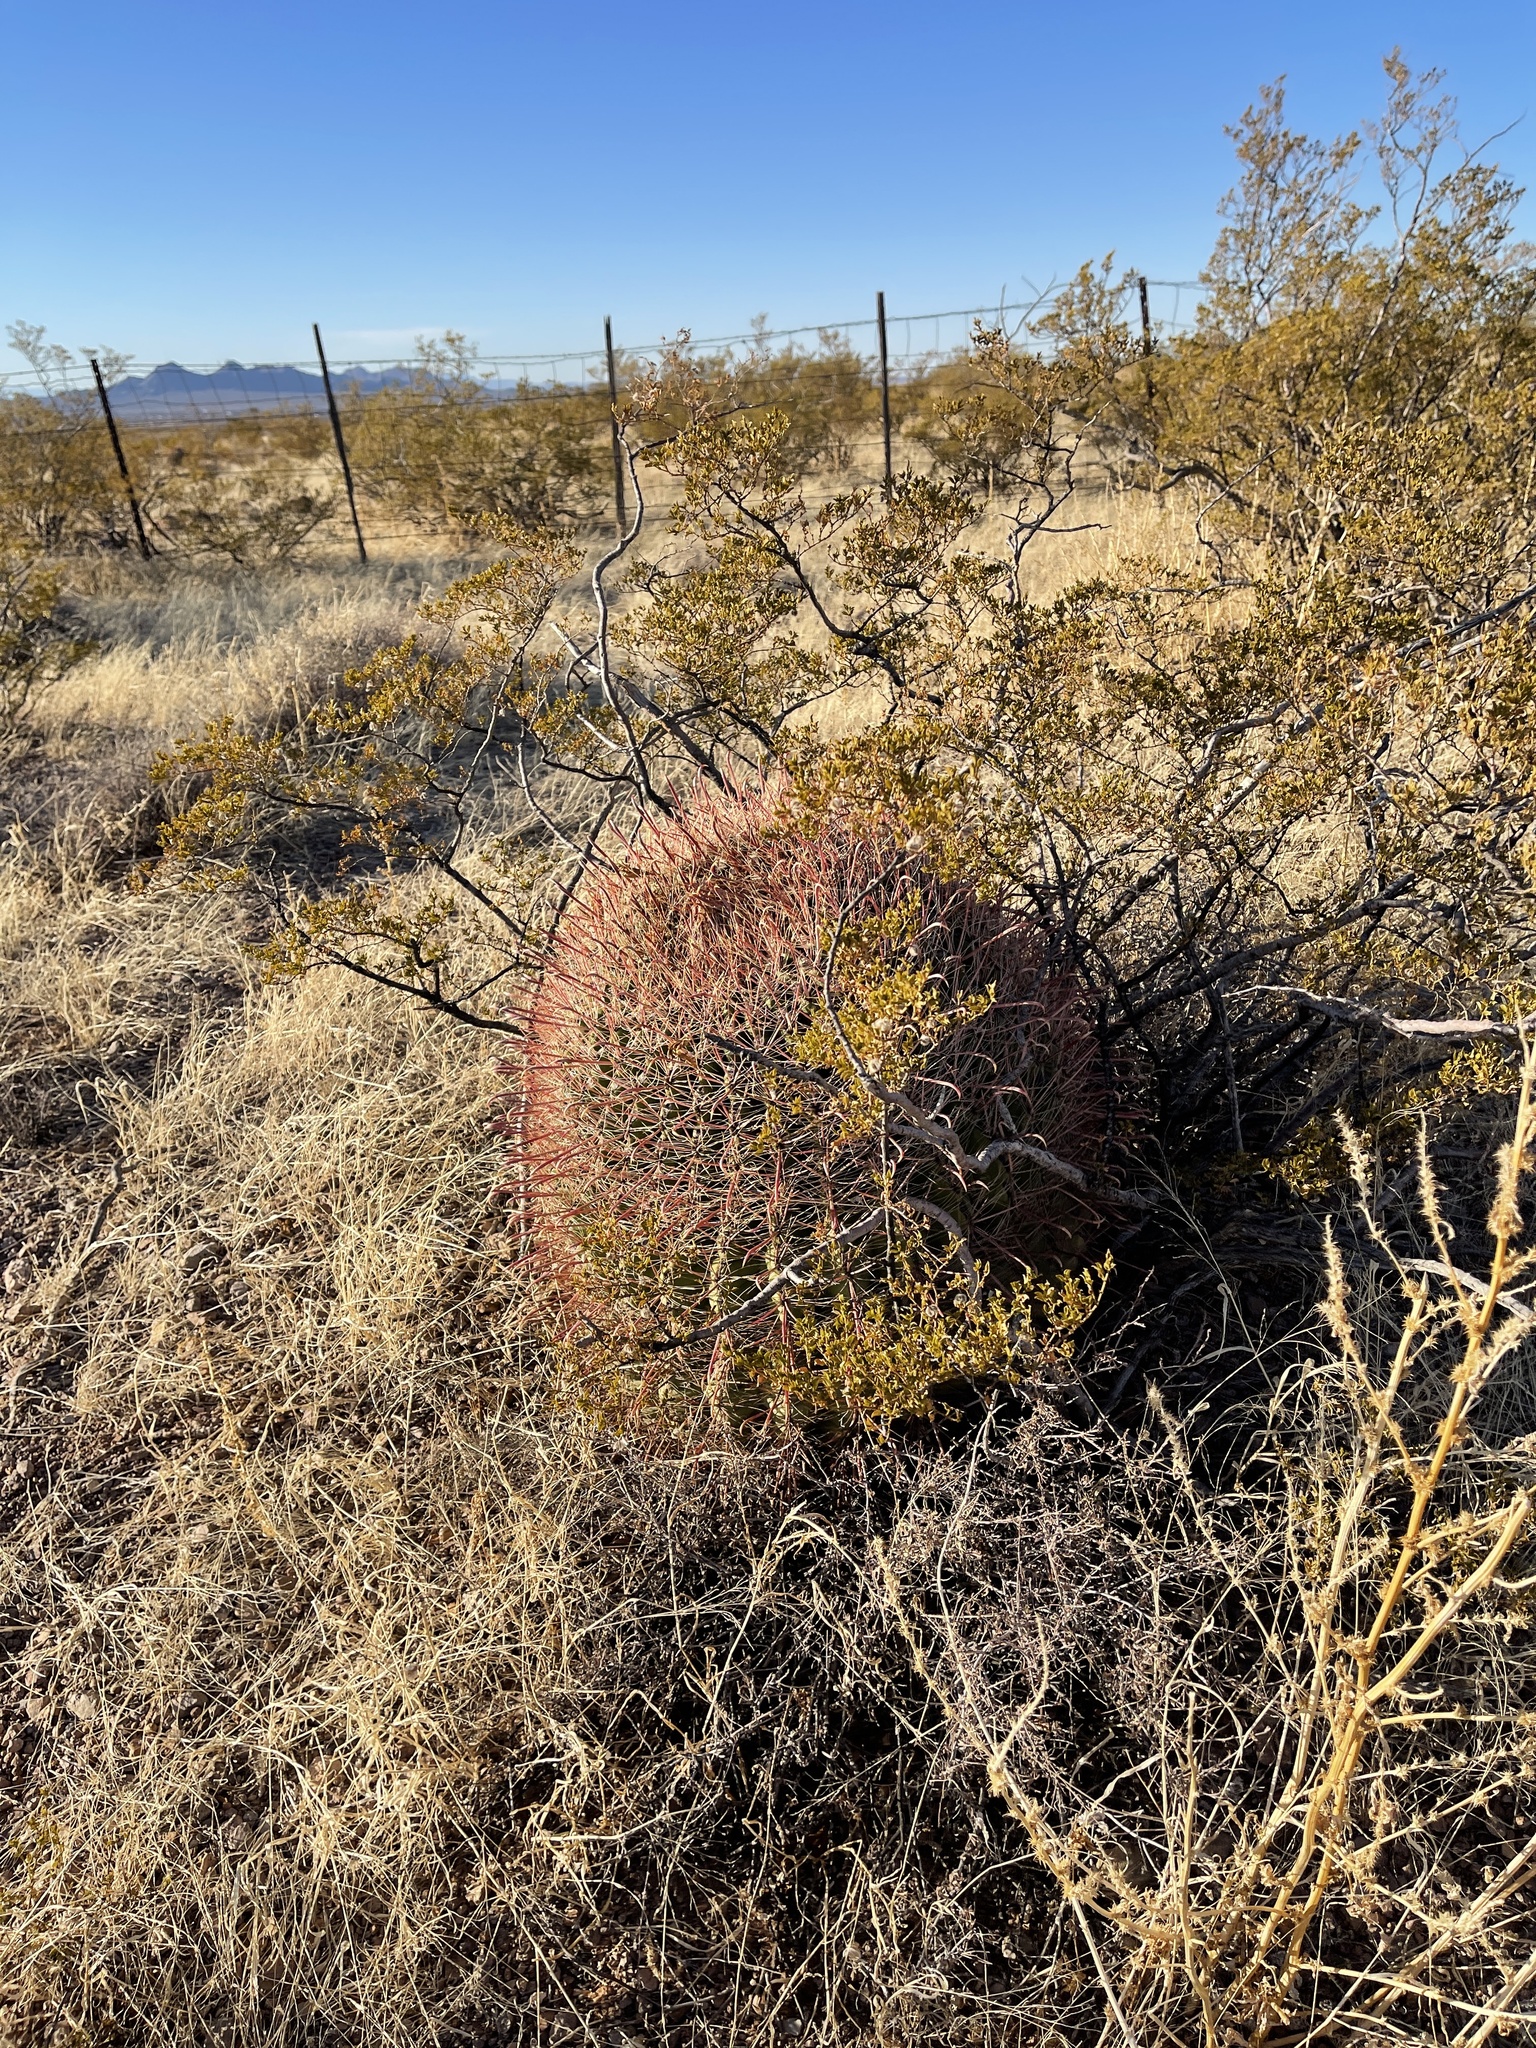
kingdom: Plantae
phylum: Tracheophyta
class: Magnoliopsida
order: Caryophyllales
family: Cactaceae
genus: Ferocactus
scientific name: Ferocactus wislizeni
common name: Candy barrel cactus
